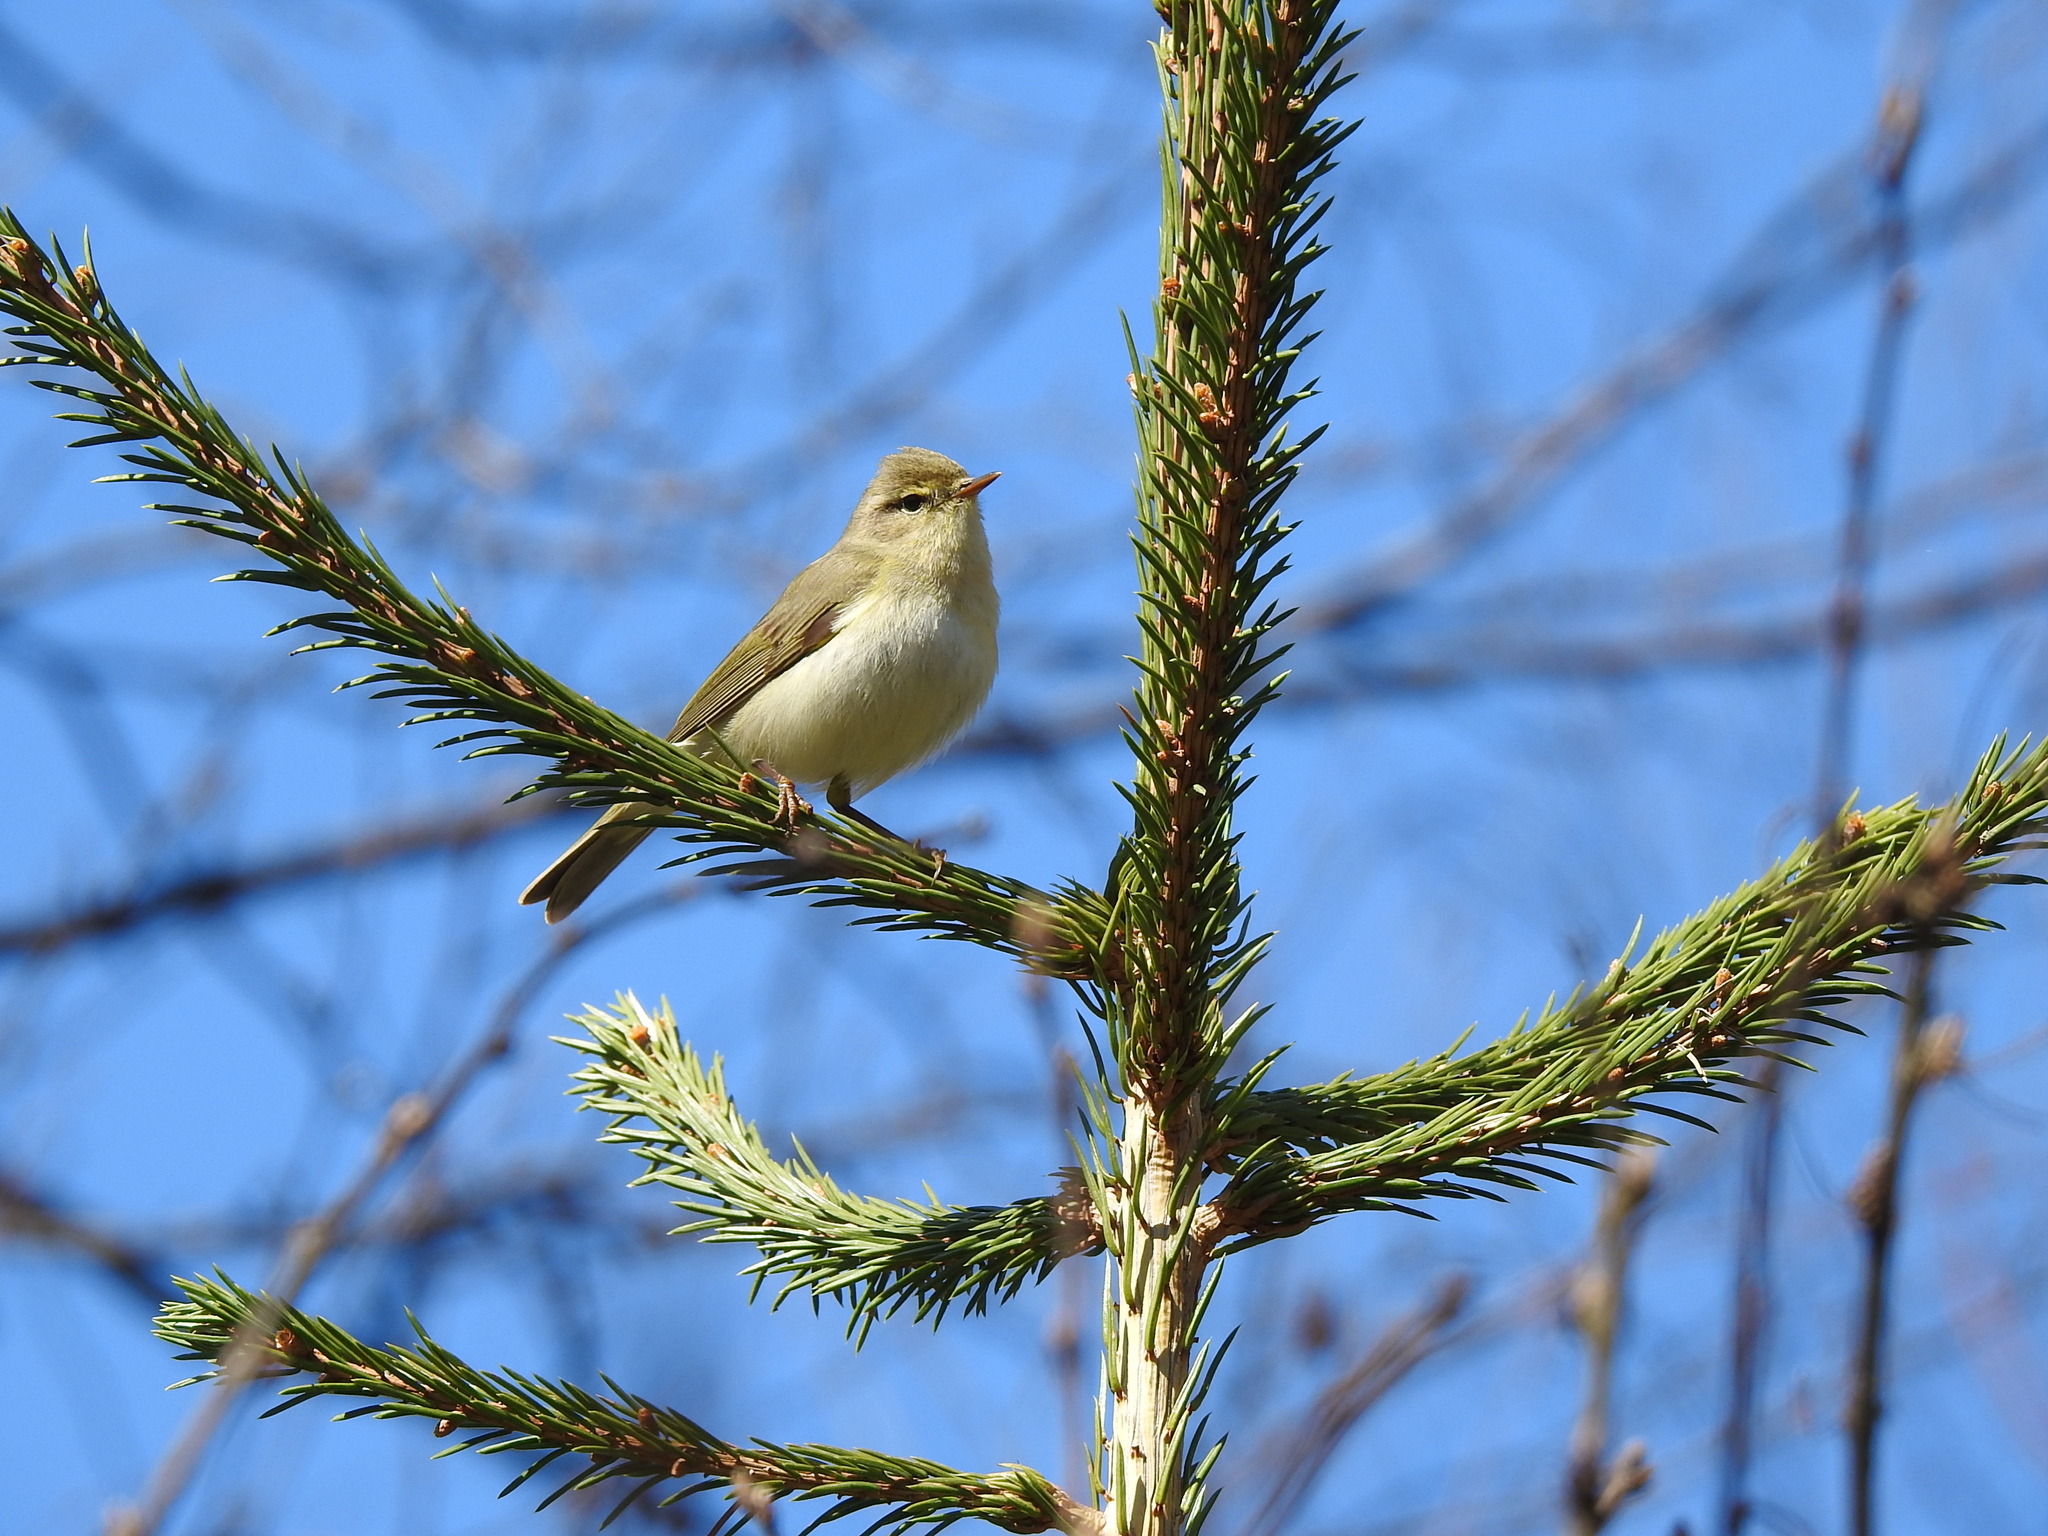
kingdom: Animalia
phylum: Chordata
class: Aves
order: Passeriformes
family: Phylloscopidae
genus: Phylloscopus
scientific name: Phylloscopus trochilus
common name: Willow warbler
